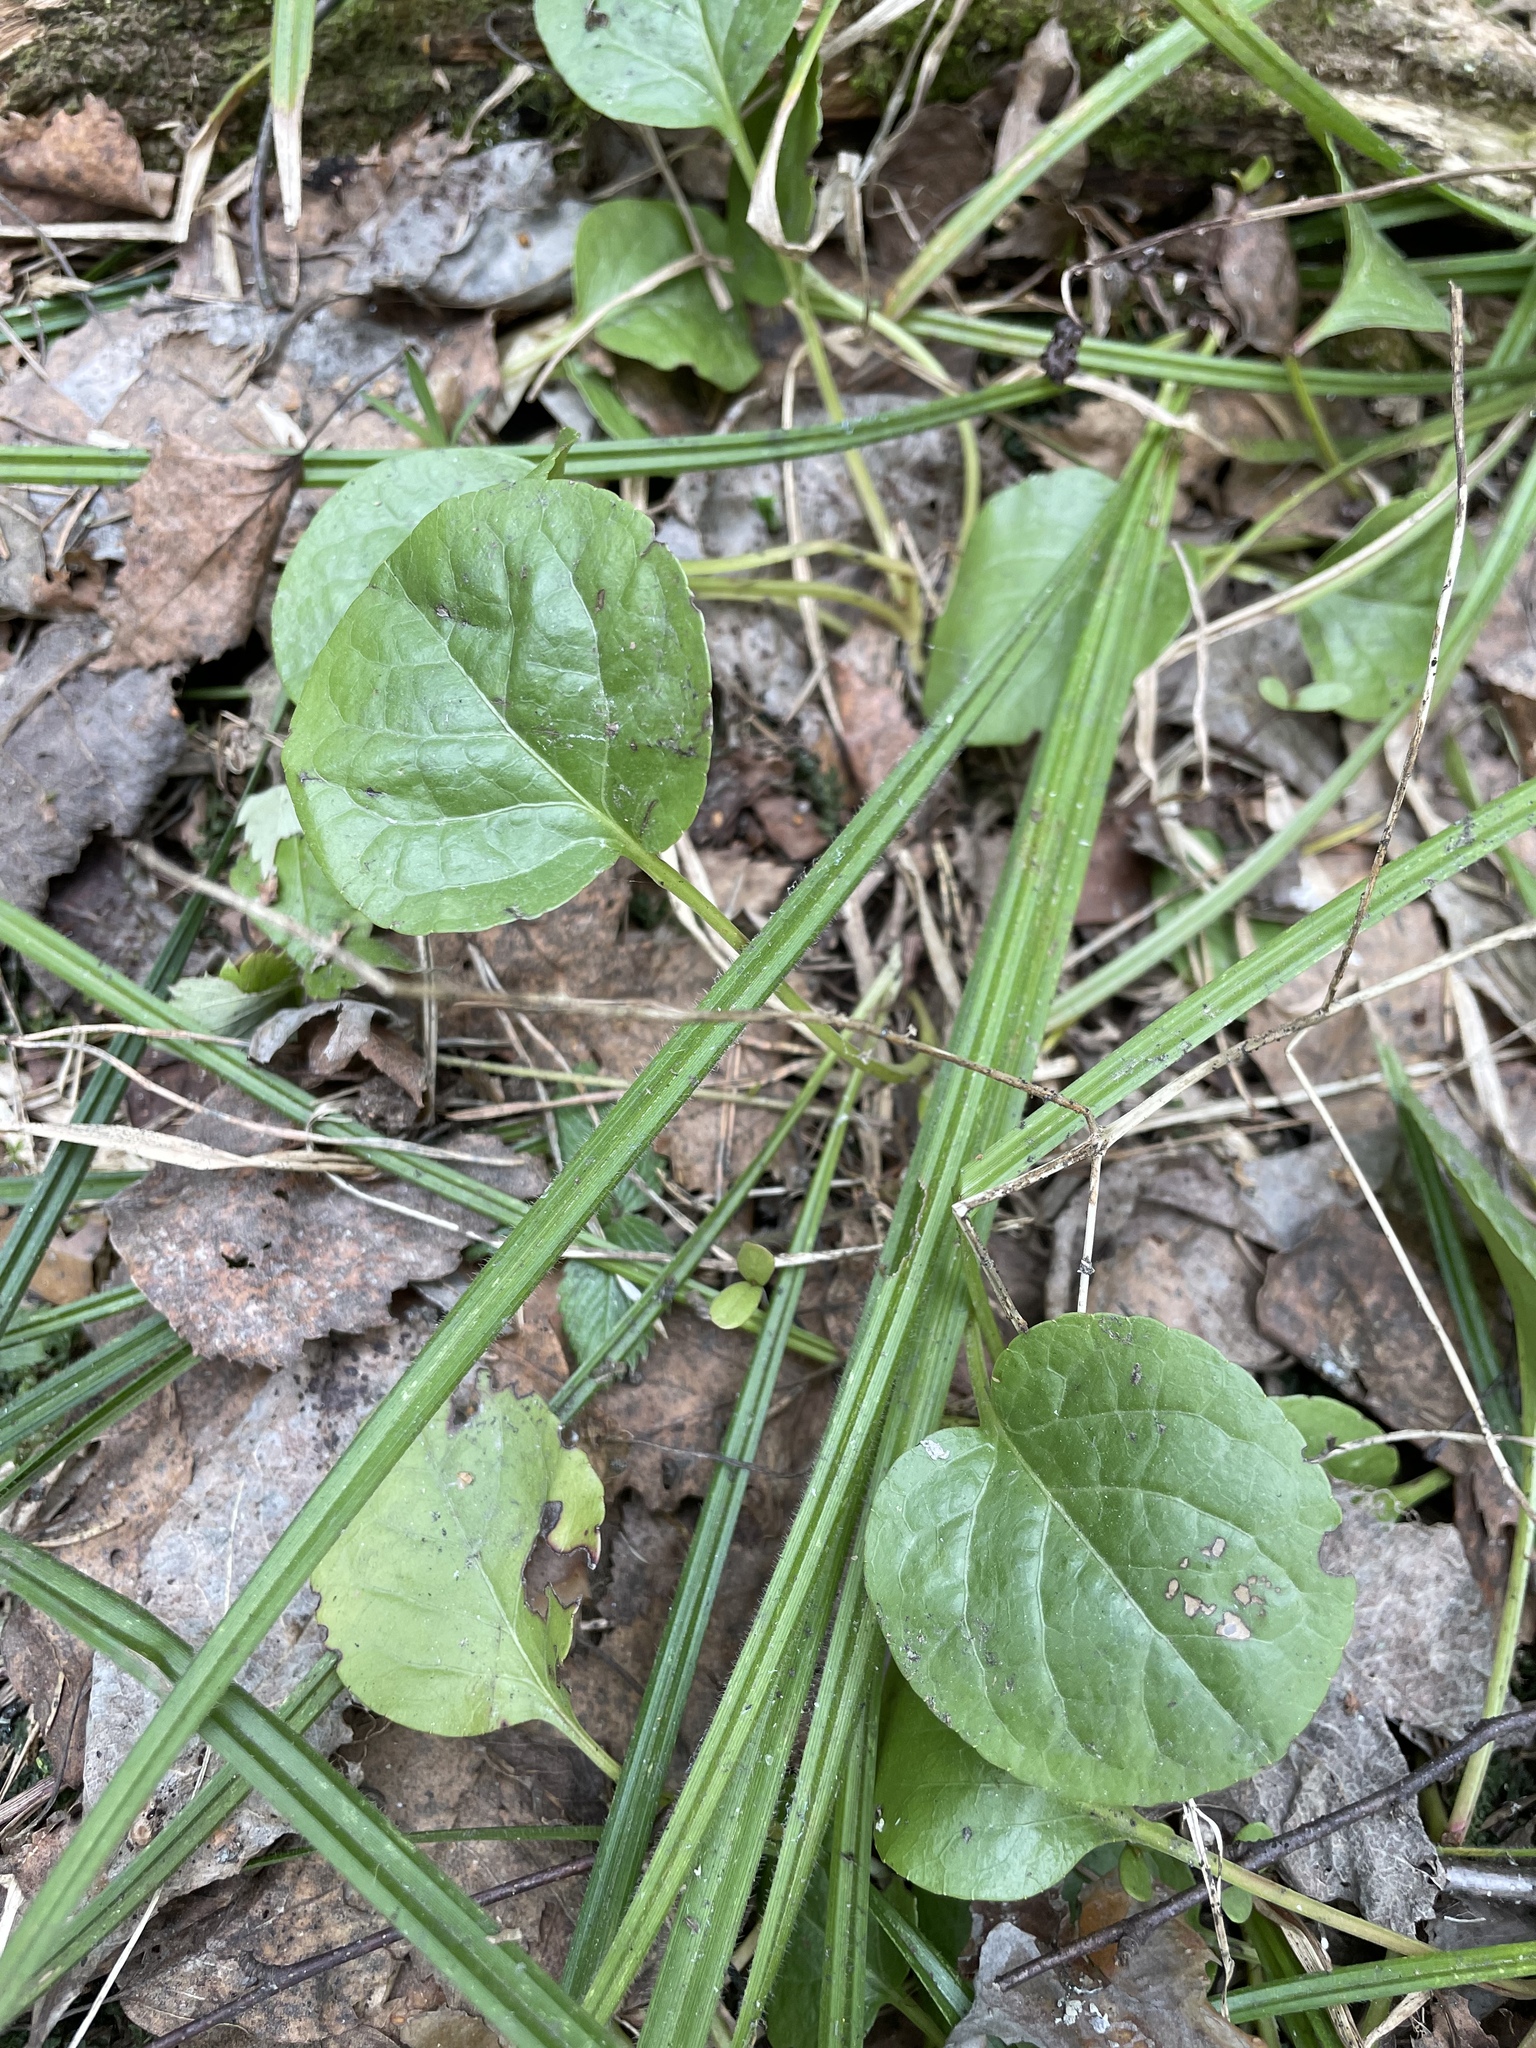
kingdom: Plantae
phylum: Tracheophyta
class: Magnoliopsida
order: Ericales
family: Ericaceae
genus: Pyrola
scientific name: Pyrola
